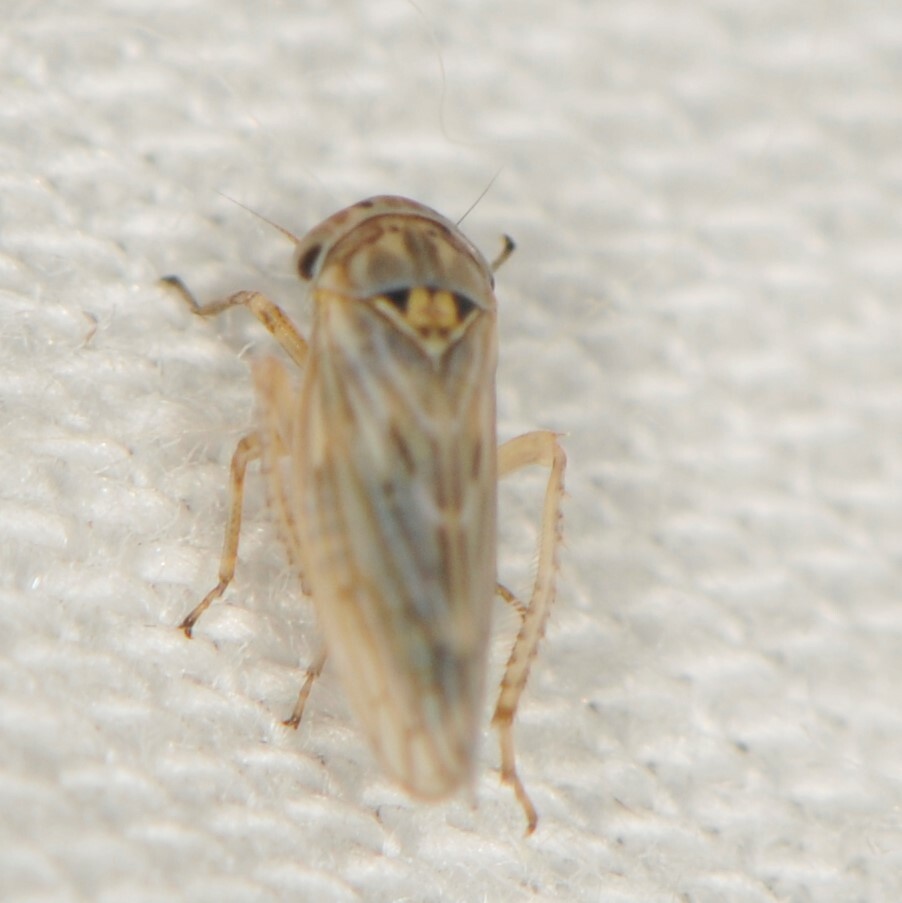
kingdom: Animalia
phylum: Arthropoda
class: Insecta
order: Hemiptera
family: Cicadellidae
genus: Ceratagallia
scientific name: Ceratagallia
